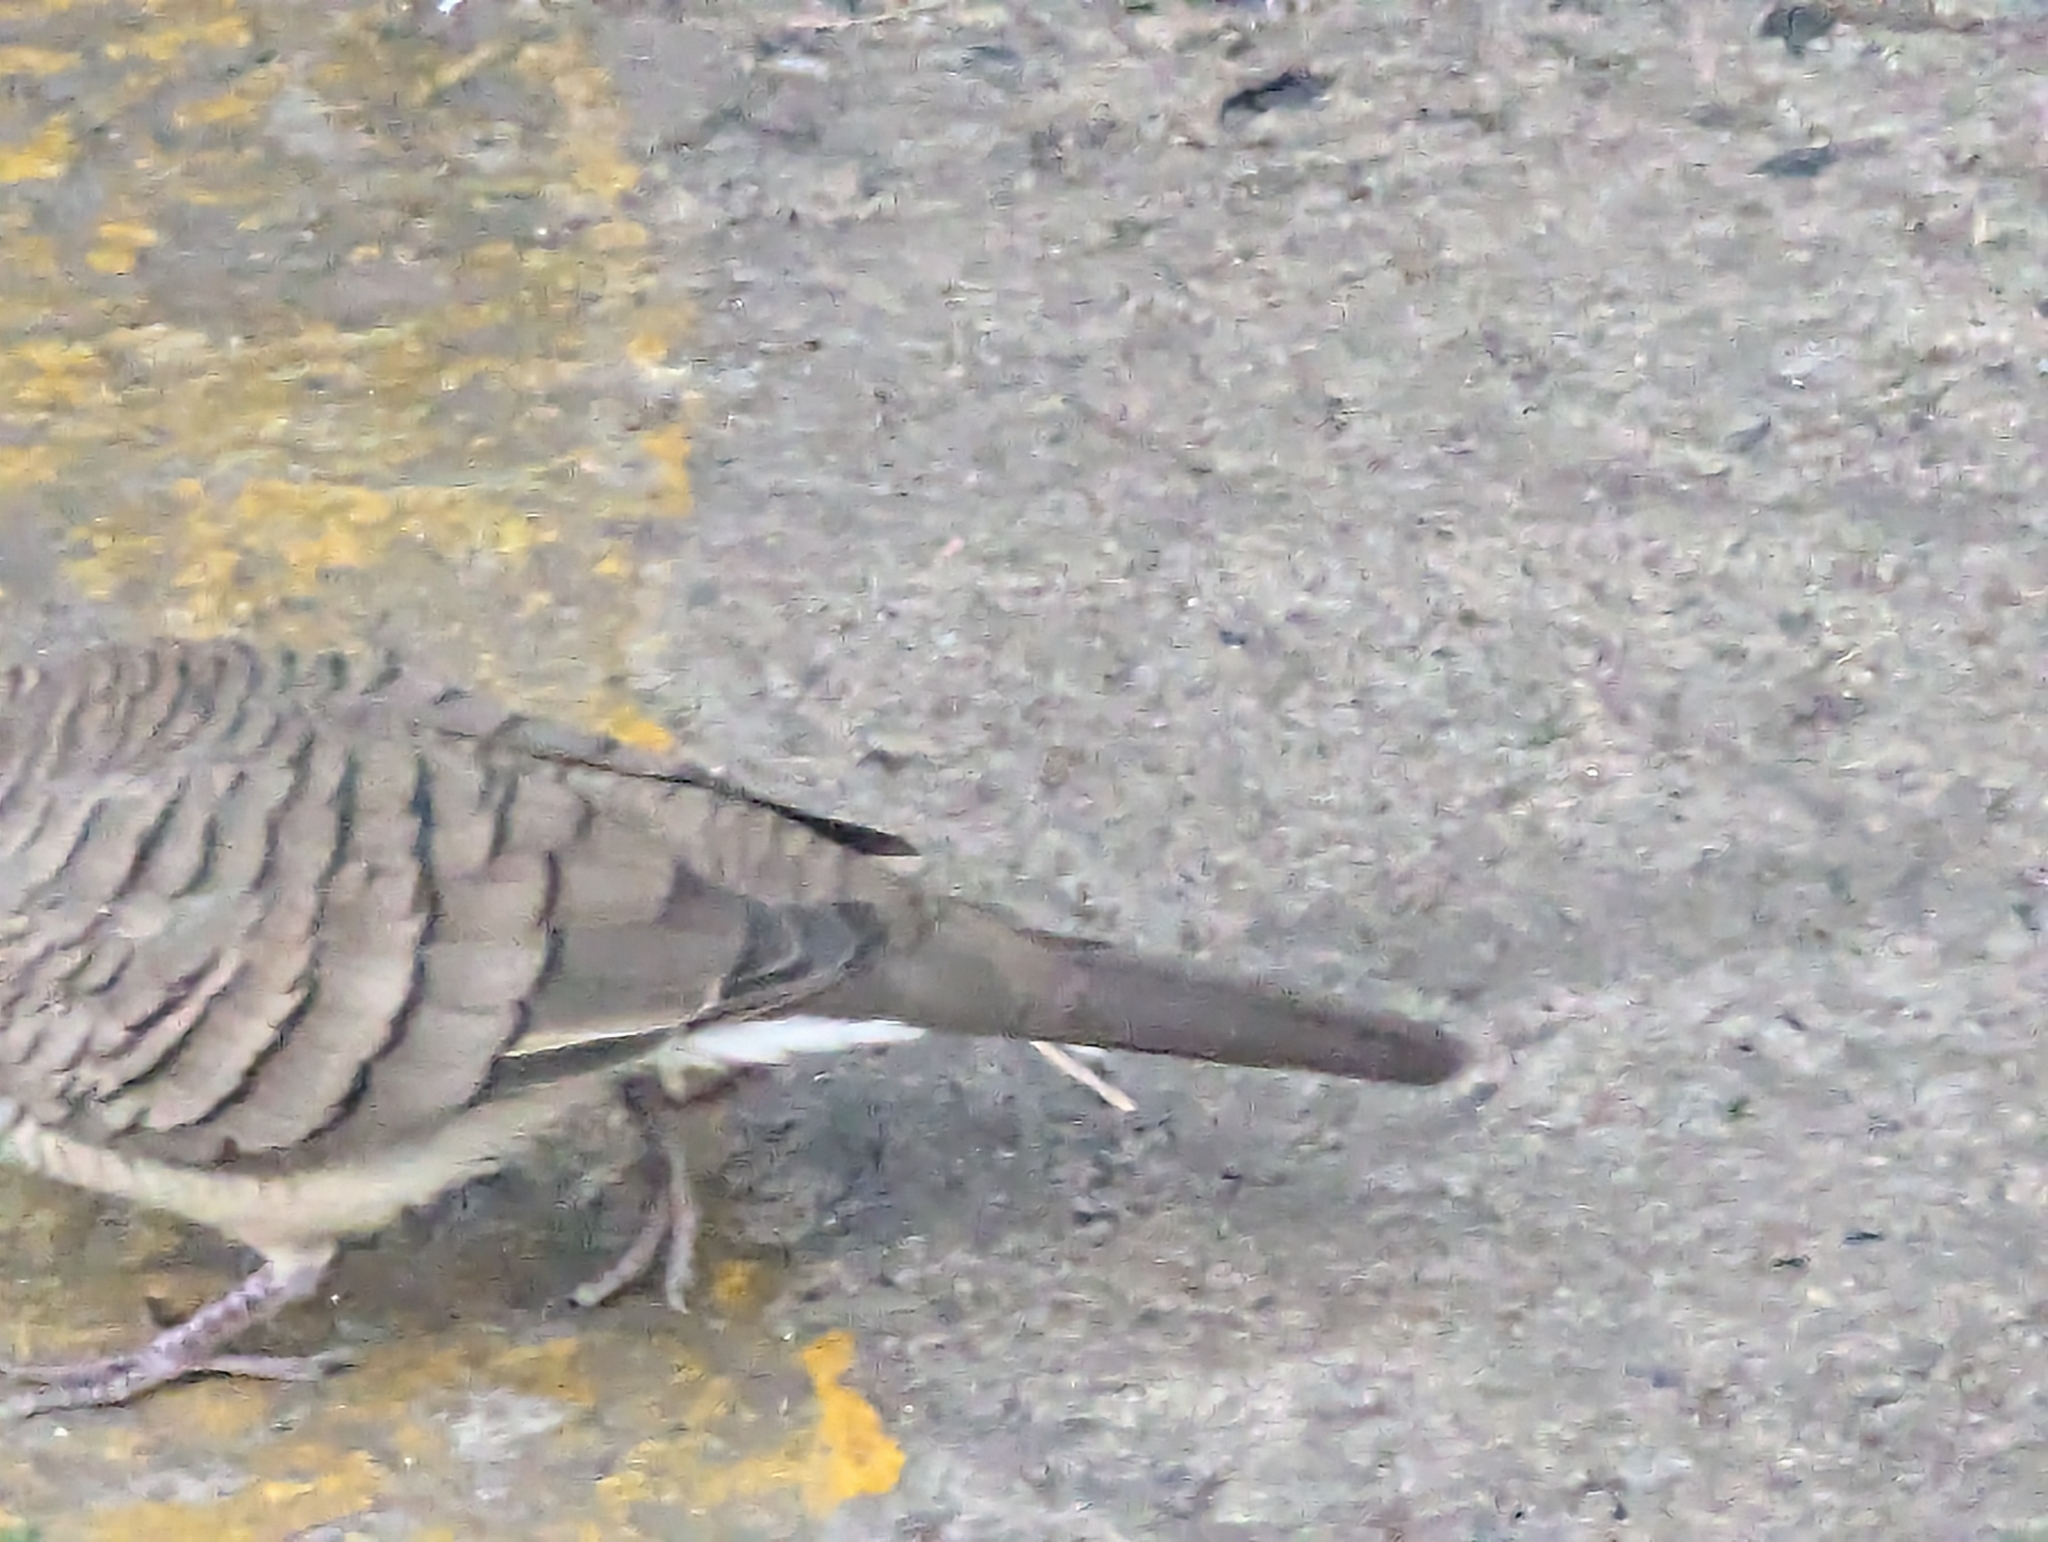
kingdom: Animalia
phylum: Chordata
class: Aves
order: Columbiformes
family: Columbidae
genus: Geopelia
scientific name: Geopelia striata
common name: Zebra dove
